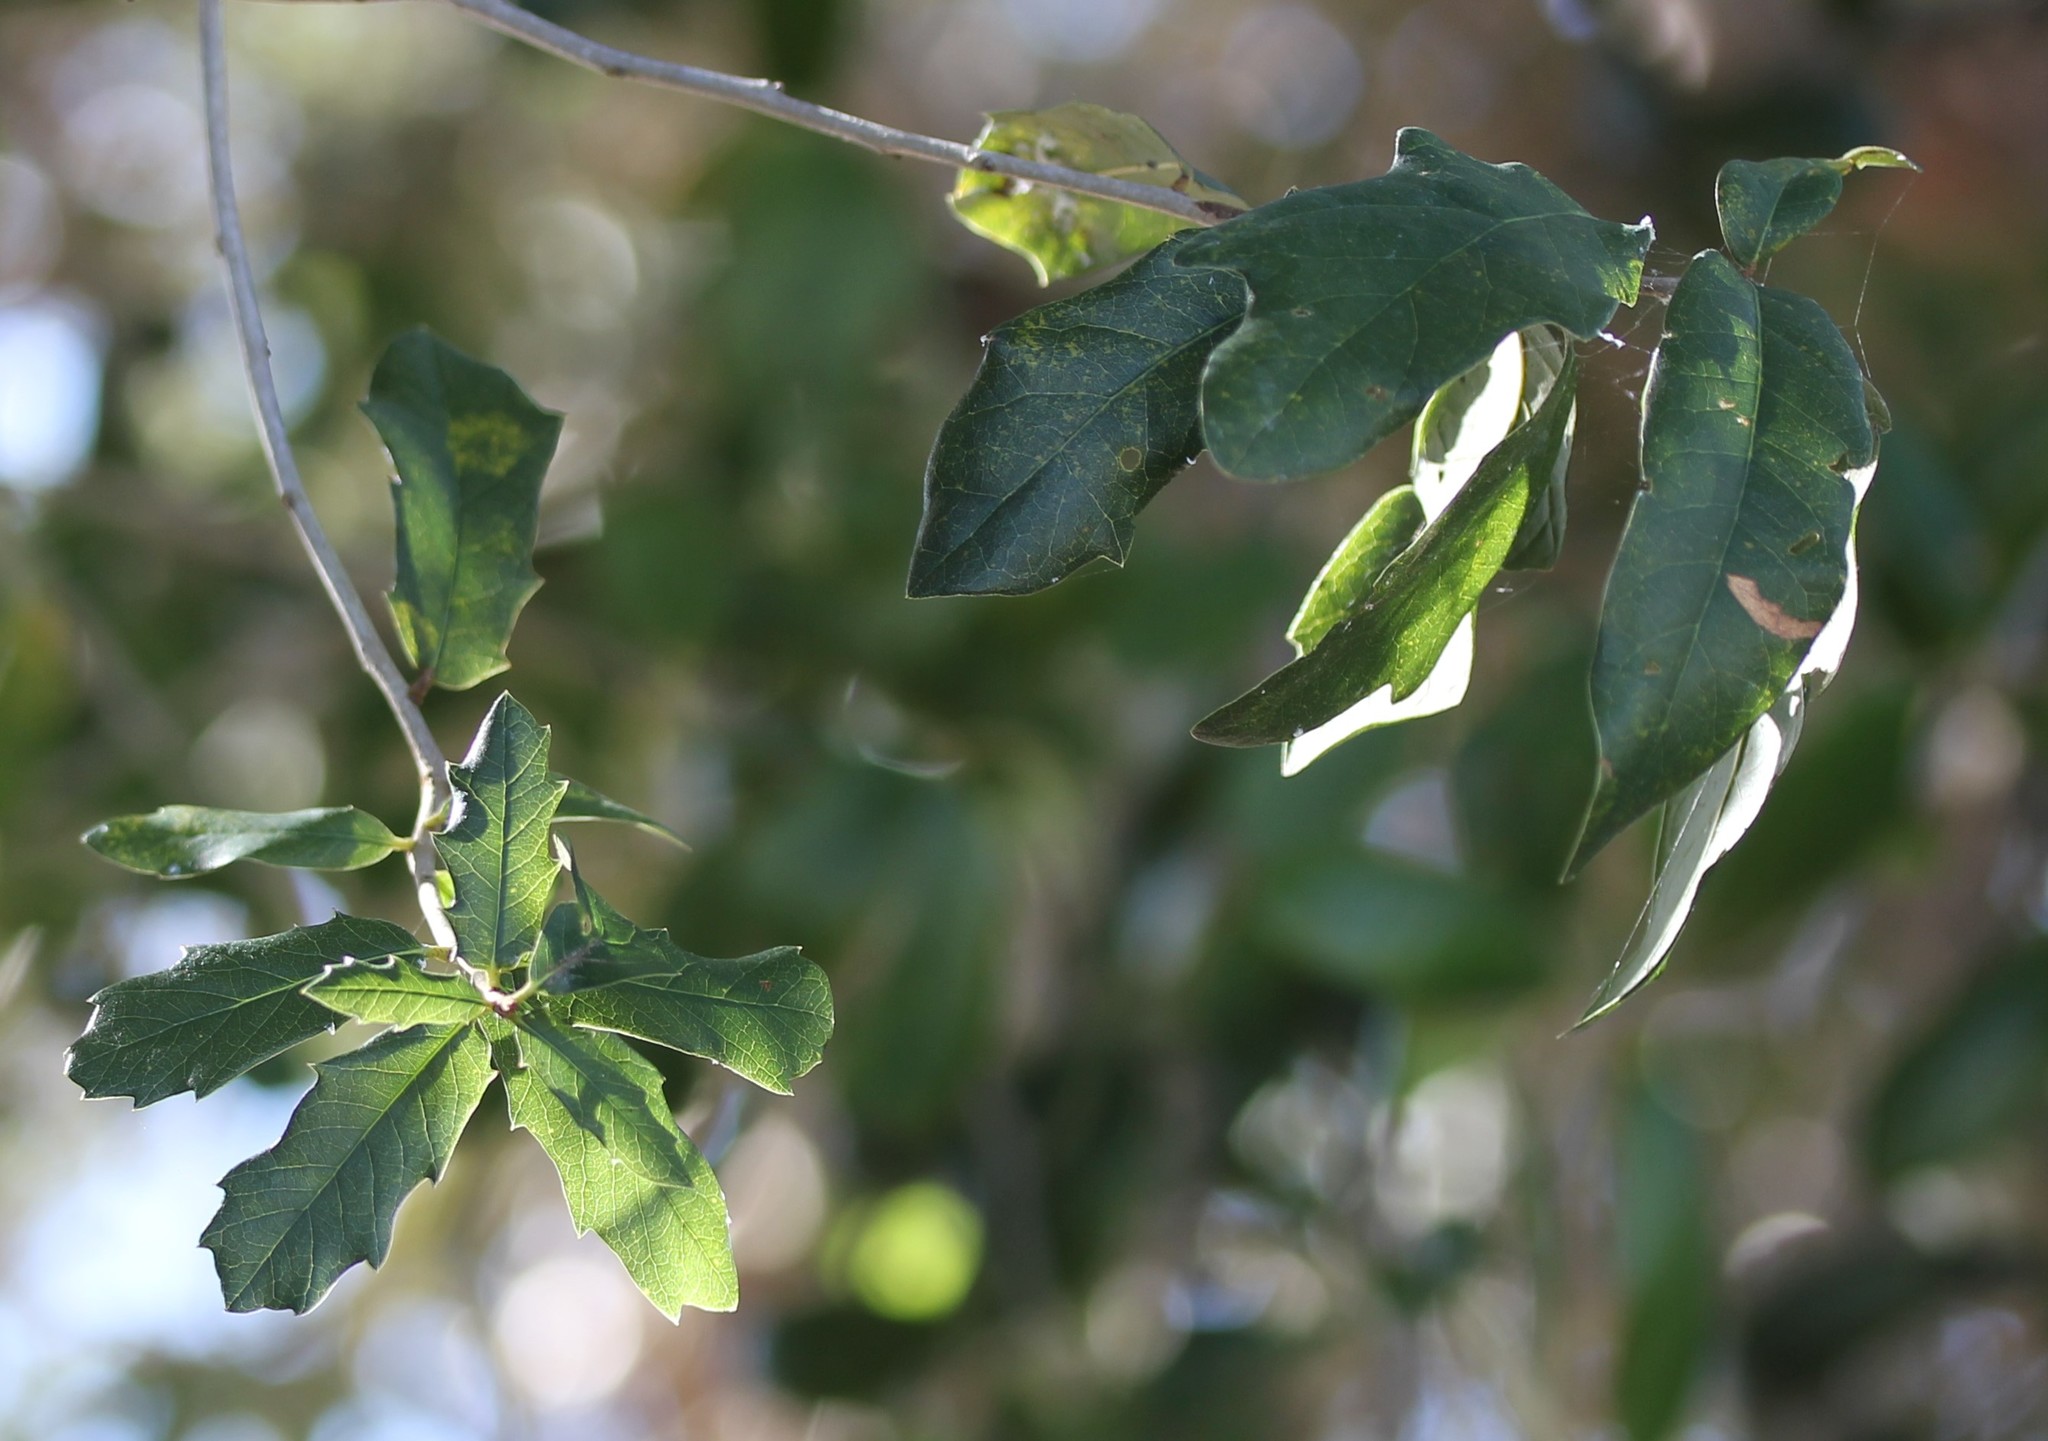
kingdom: Plantae
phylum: Tracheophyta
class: Magnoliopsida
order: Fagales
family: Fagaceae
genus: Quercus
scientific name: Quercus virginiana
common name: Southern live oak
